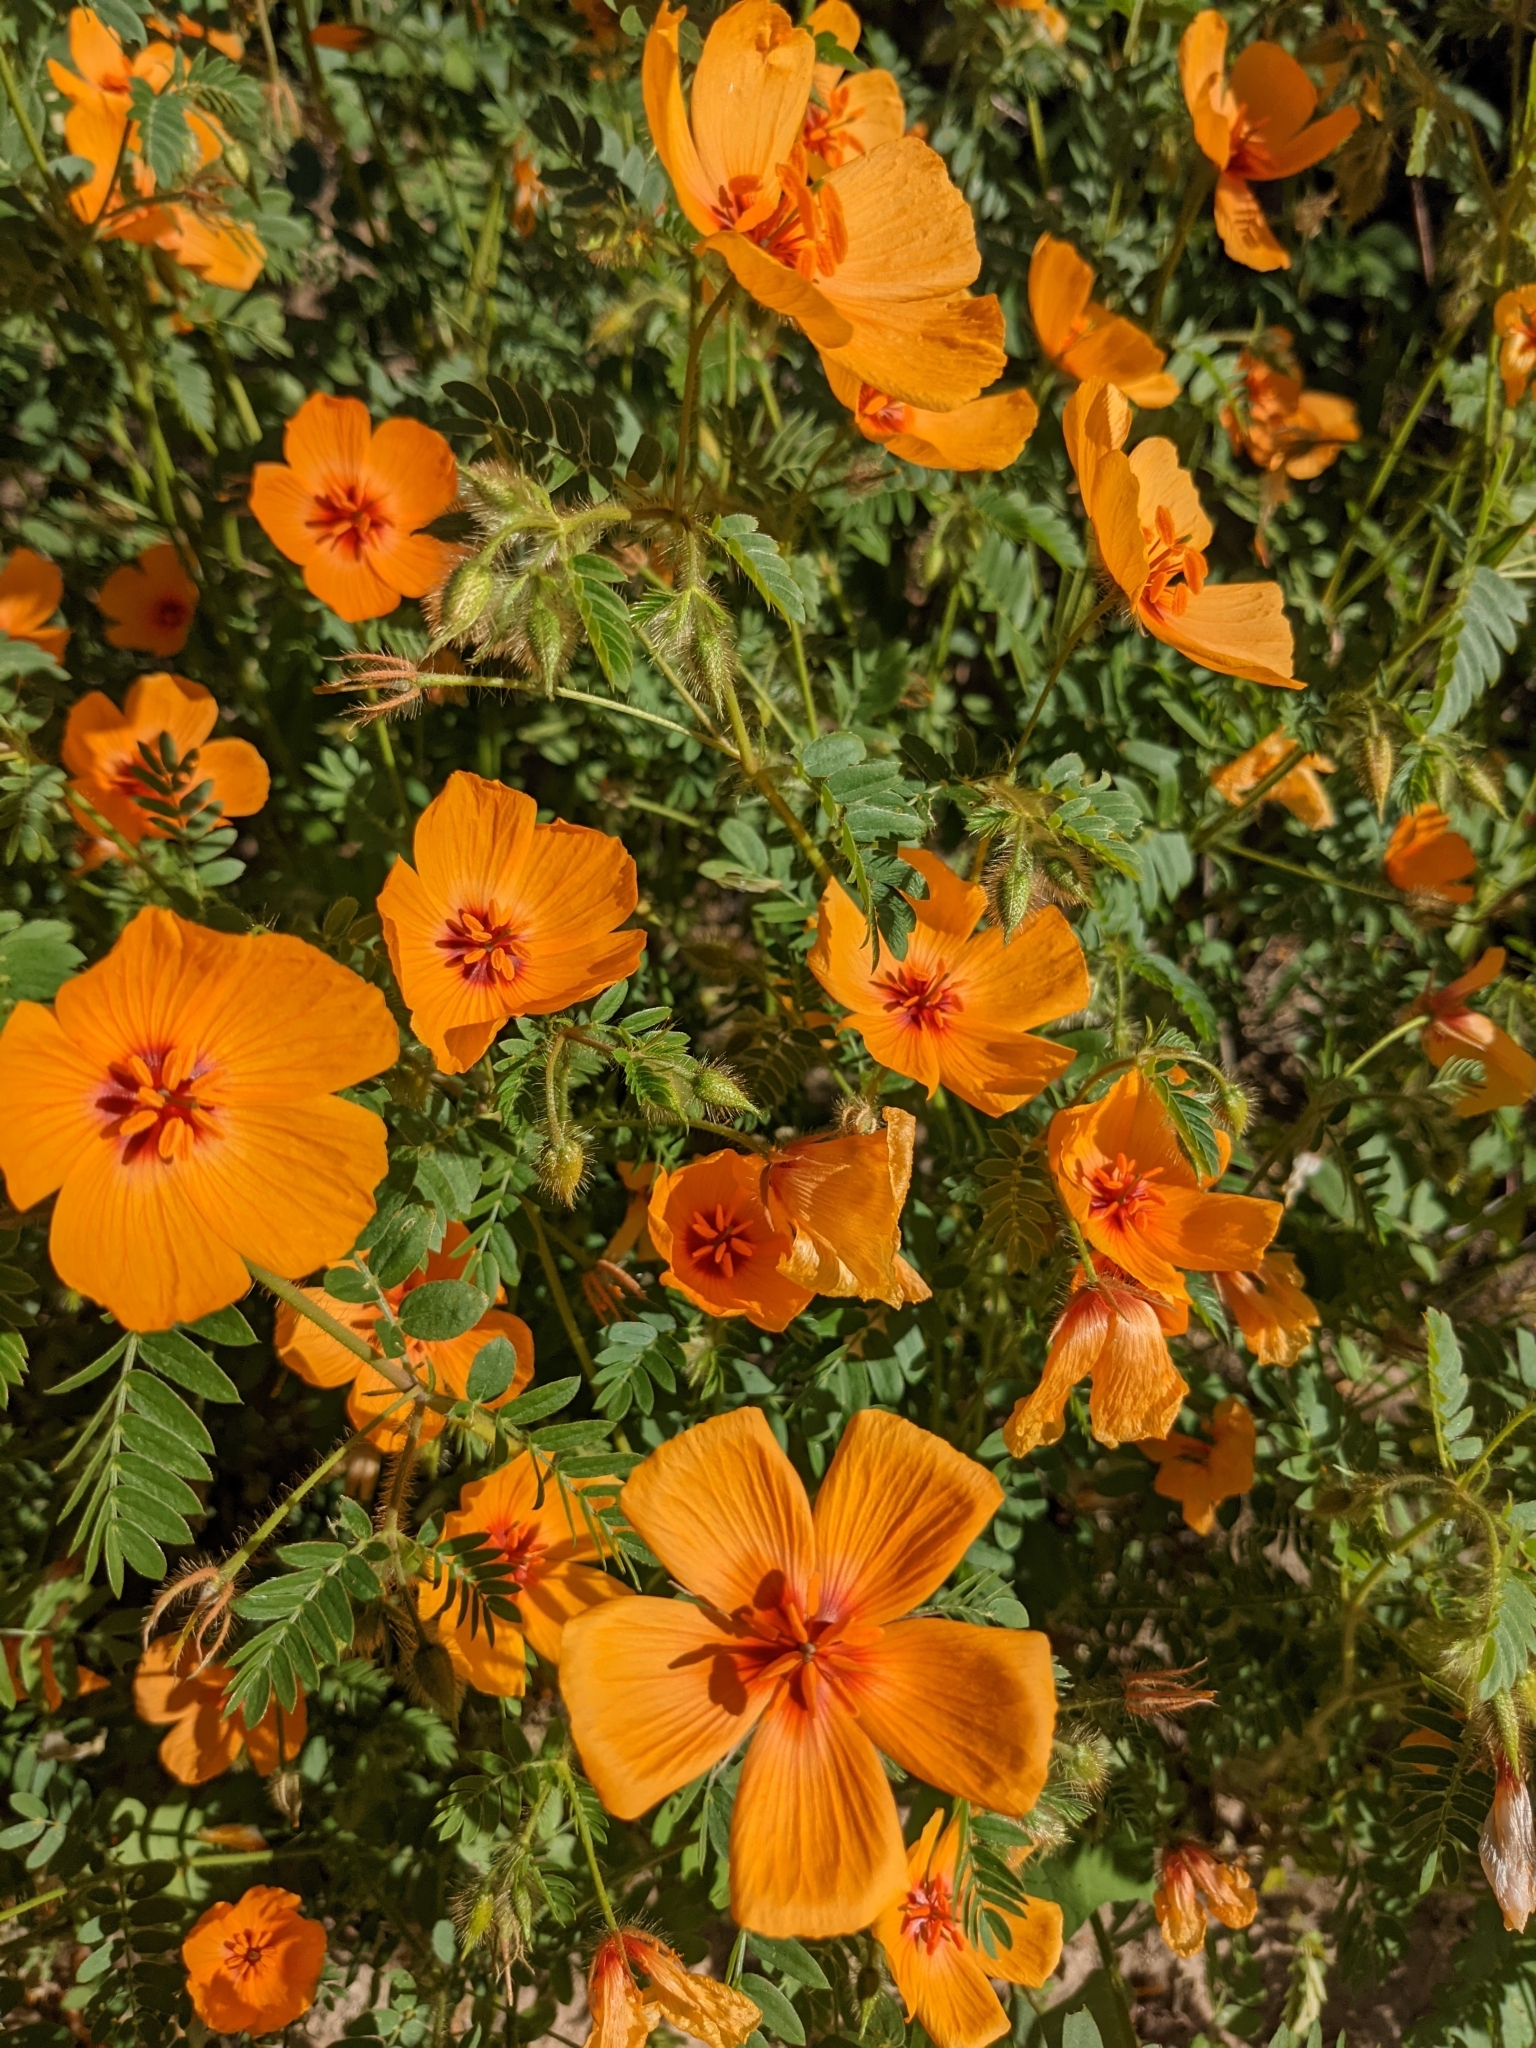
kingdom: Plantae
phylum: Tracheophyta
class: Magnoliopsida
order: Zygophyllales
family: Zygophyllaceae
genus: Kallstroemia
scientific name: Kallstroemia grandiflora
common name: Arizona-poppy
